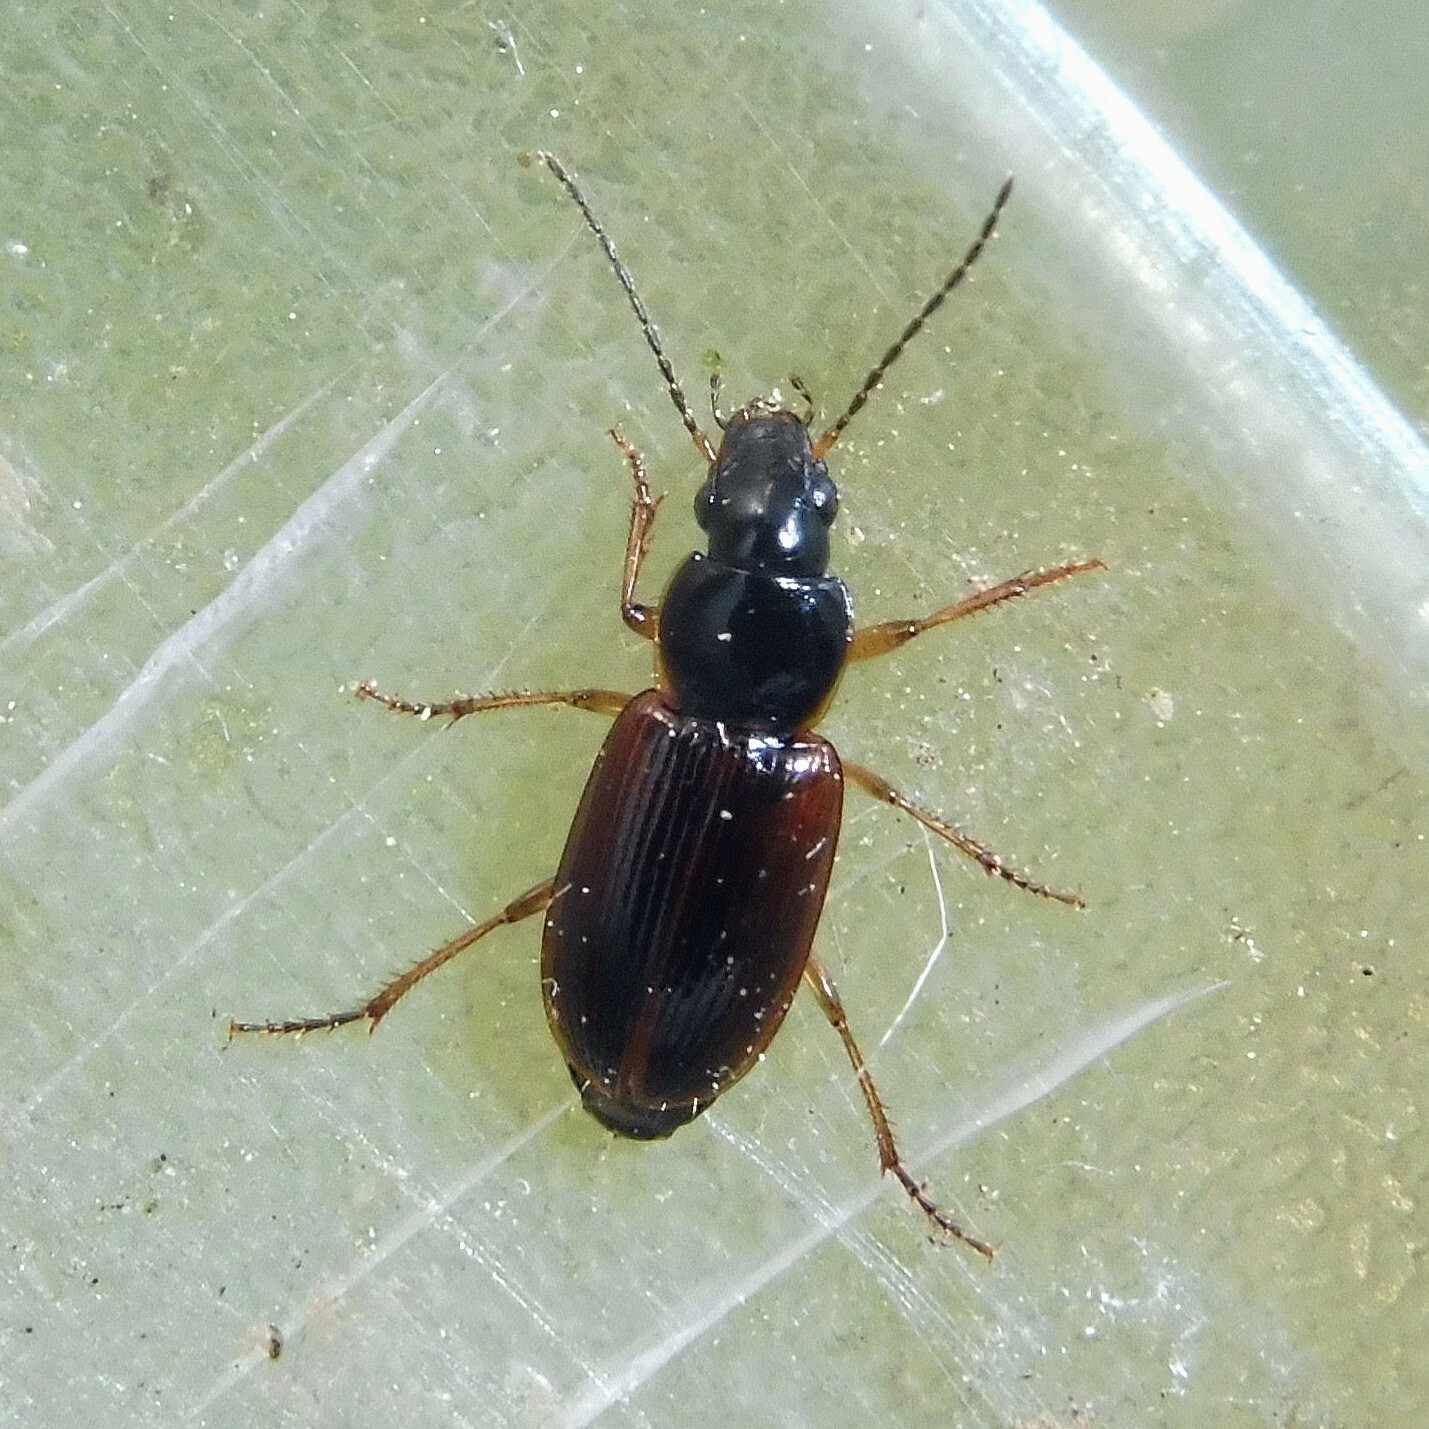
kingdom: Animalia
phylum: Arthropoda
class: Insecta
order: Coleoptera
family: Carabidae
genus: Stenolophus
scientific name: Stenolophus mixtus
